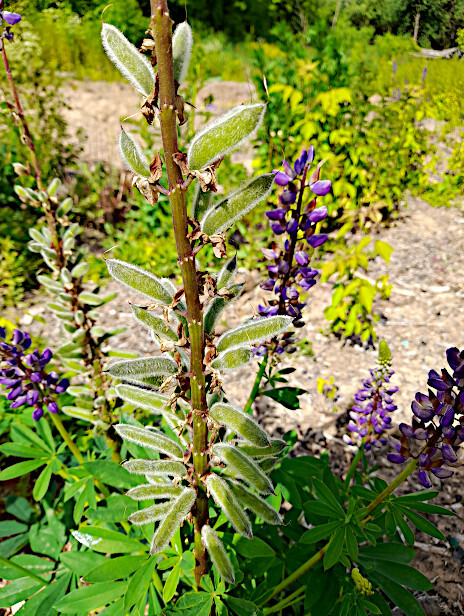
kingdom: Plantae
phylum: Tracheophyta
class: Magnoliopsida
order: Fabales
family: Fabaceae
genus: Lupinus
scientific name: Lupinus polyphyllus
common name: Garden lupin
